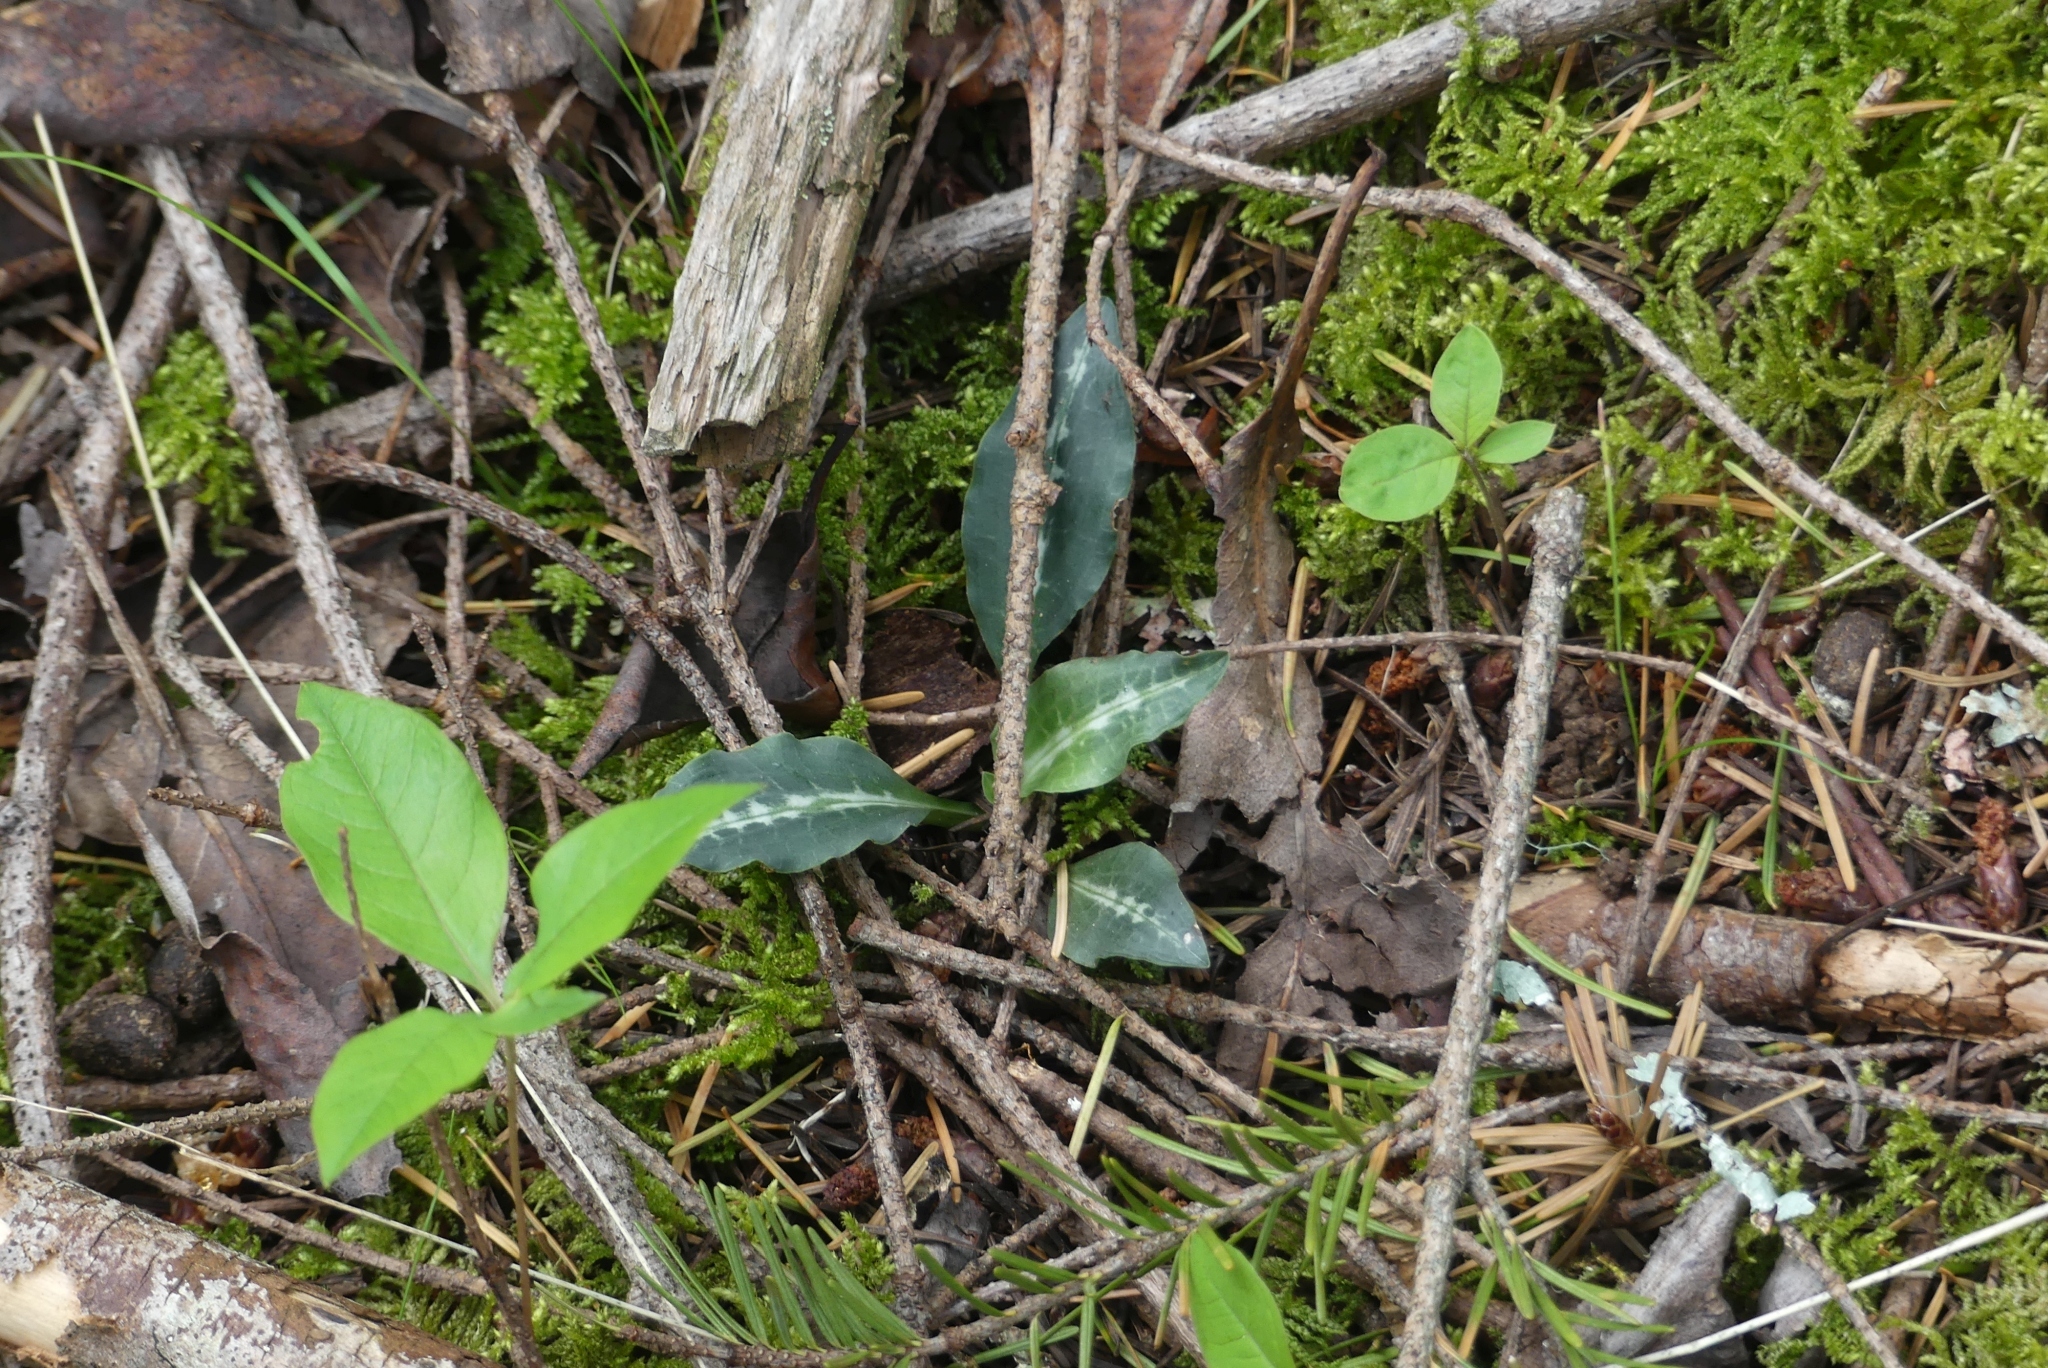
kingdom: Plantae
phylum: Tracheophyta
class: Liliopsida
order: Asparagales
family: Orchidaceae
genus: Goodyera
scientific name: Goodyera oblongifolia
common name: Giant rattlesnake-plantain
